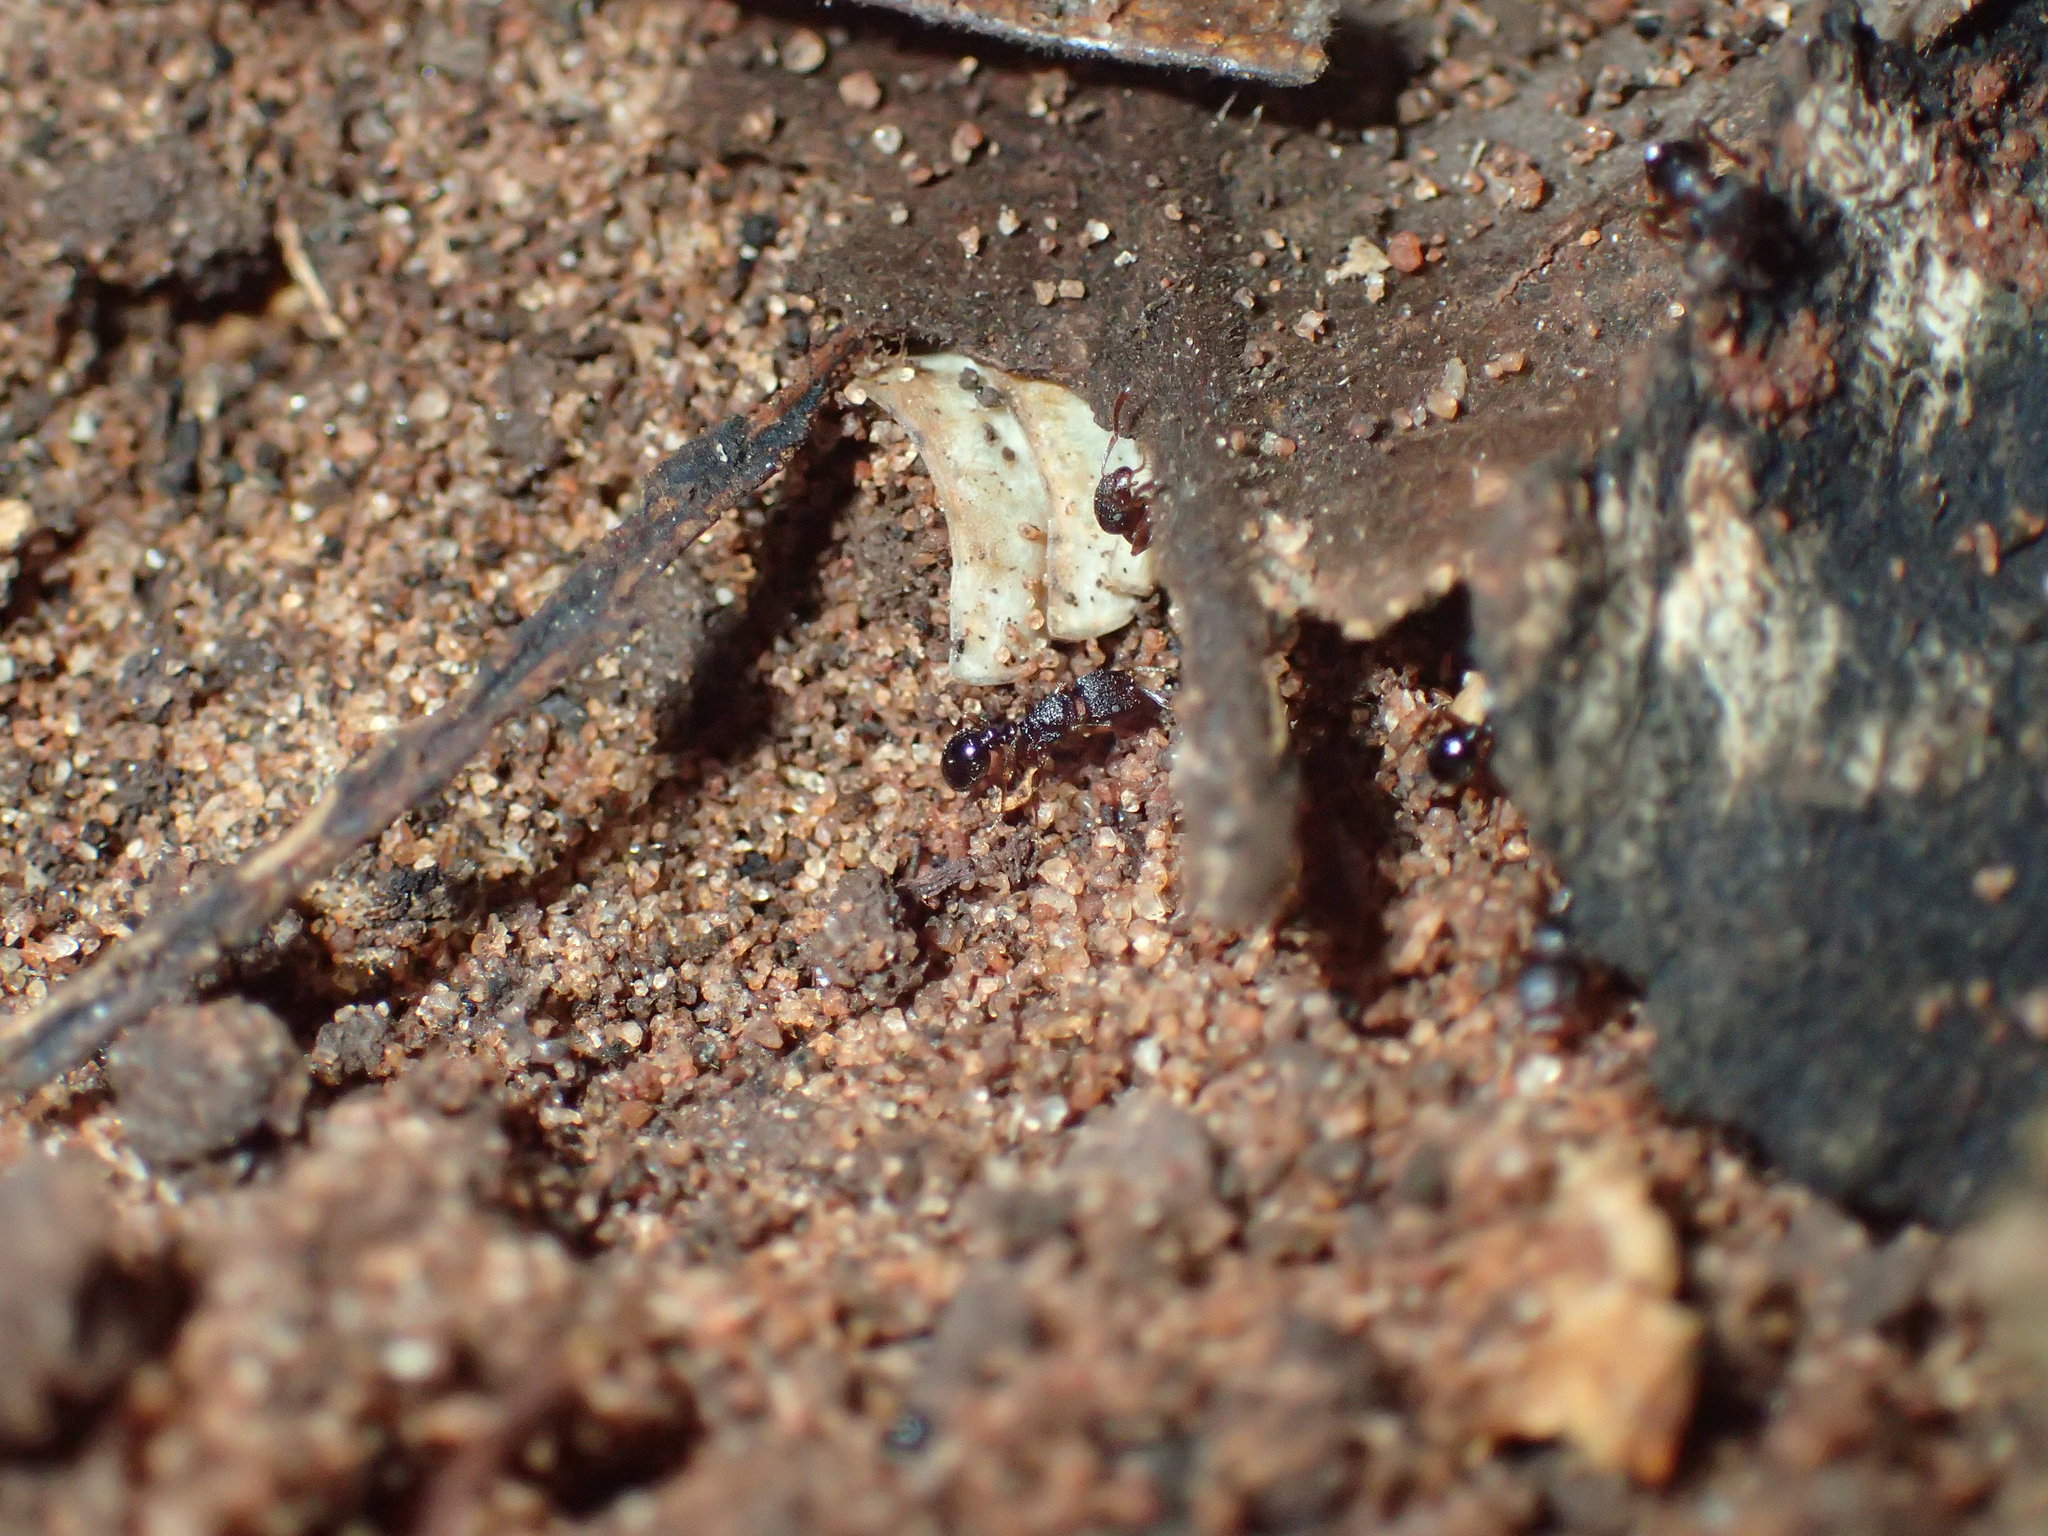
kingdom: Animalia
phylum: Arthropoda
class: Insecta
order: Hymenoptera
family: Formicidae
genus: Tetramorium
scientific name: Tetramorium erectum
